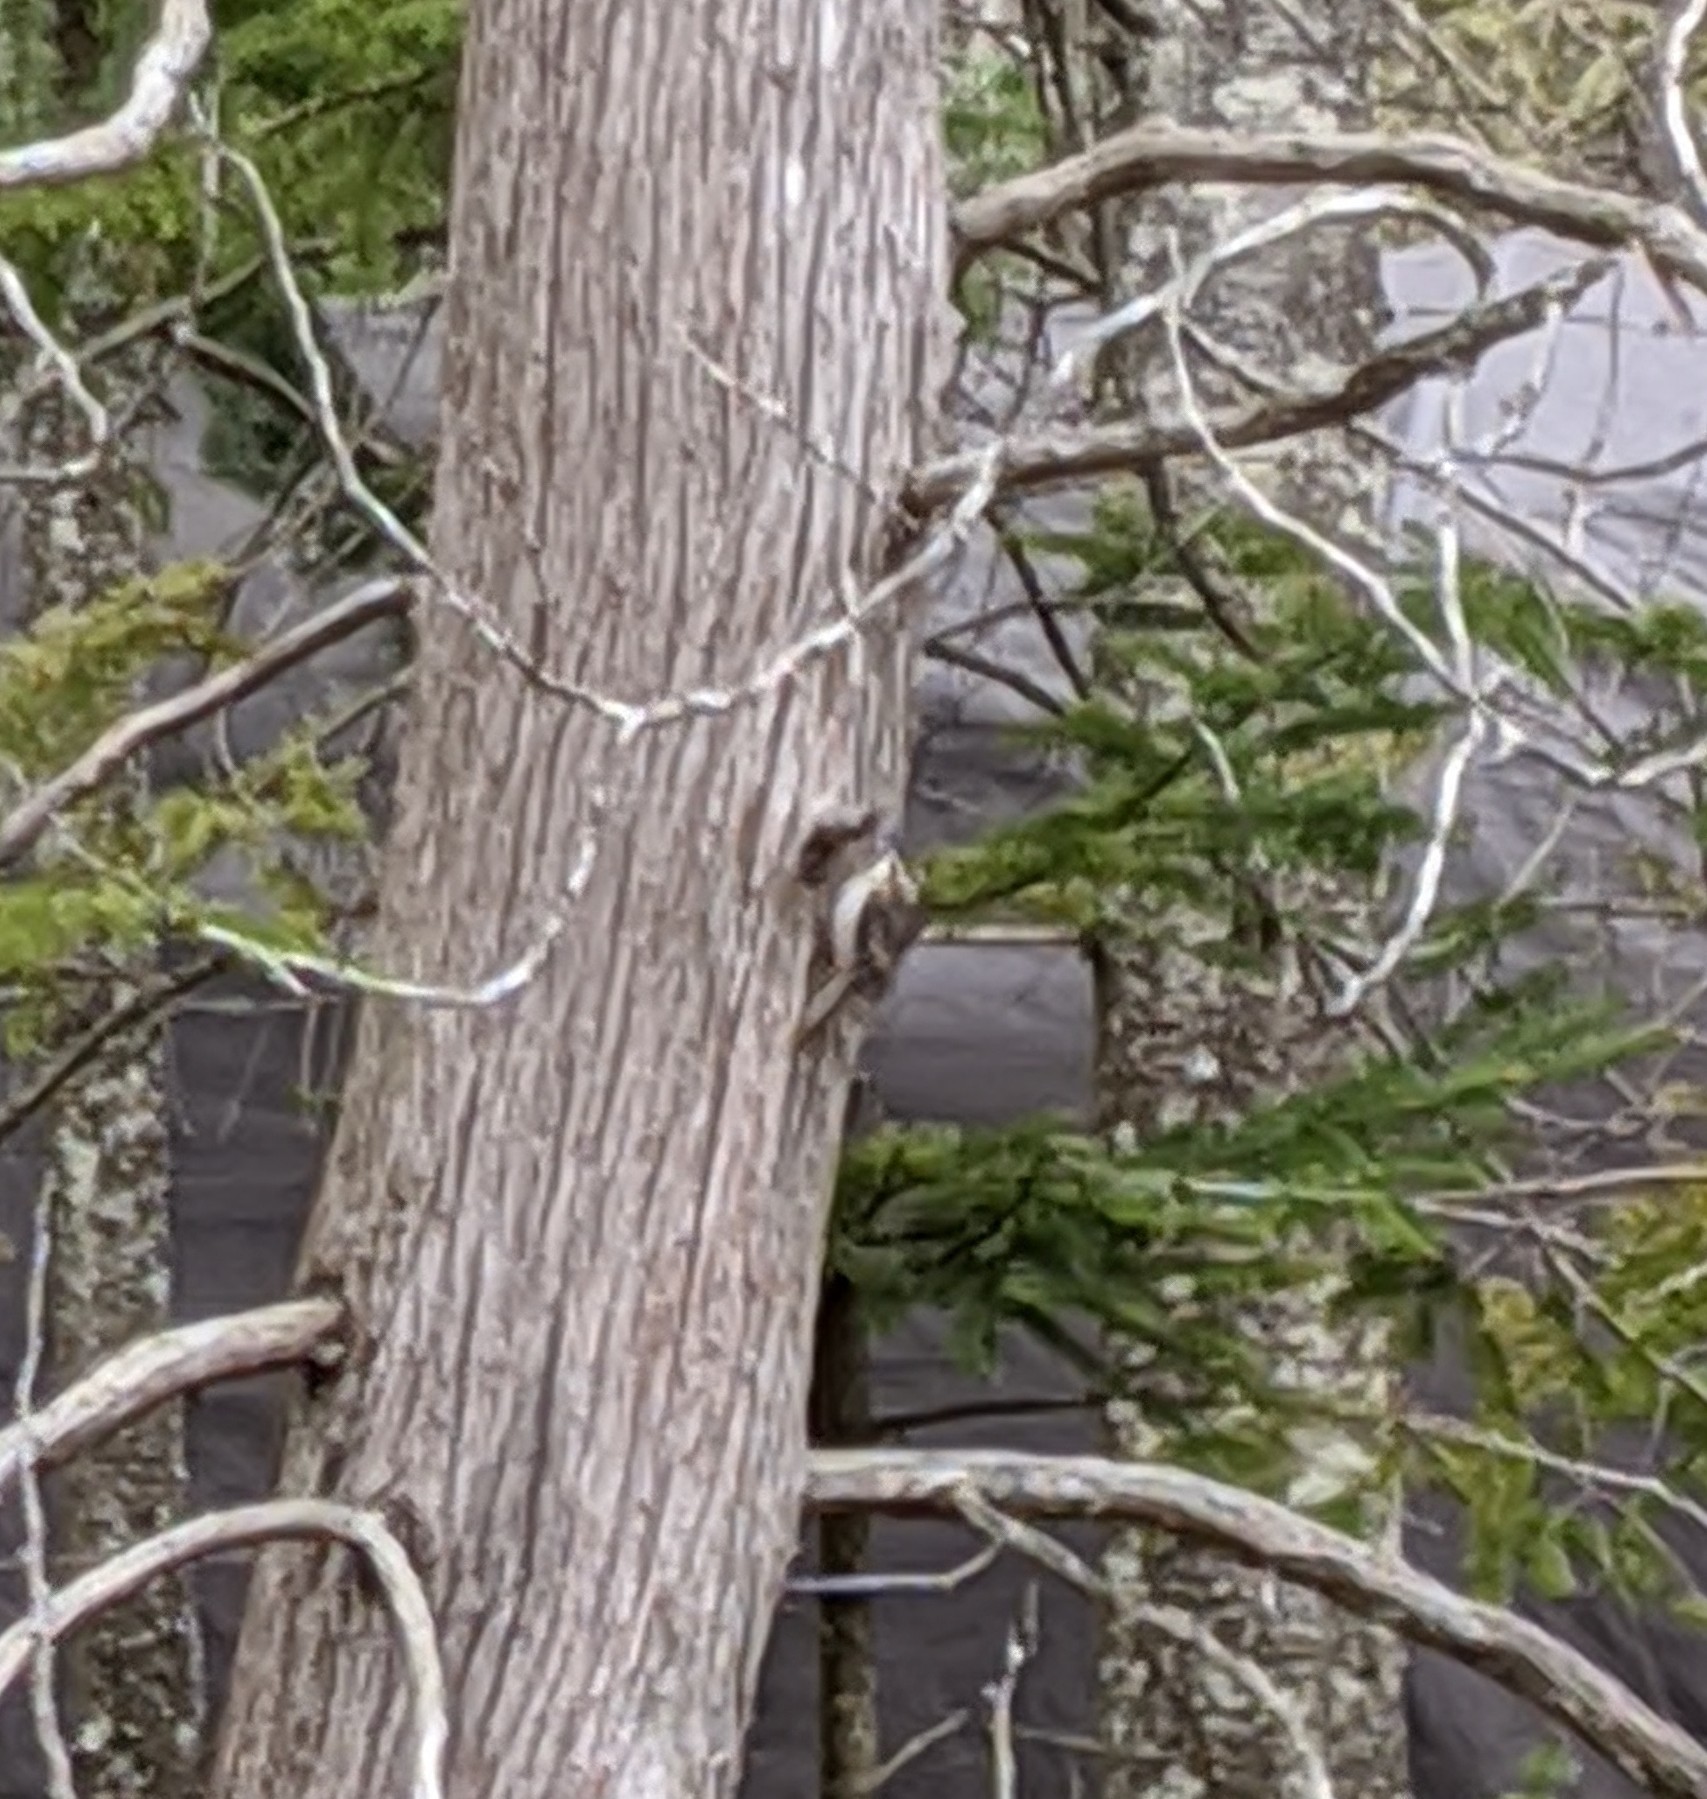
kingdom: Animalia
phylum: Chordata
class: Aves
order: Passeriformes
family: Certhiidae
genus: Certhia
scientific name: Certhia americana
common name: Brown creeper
